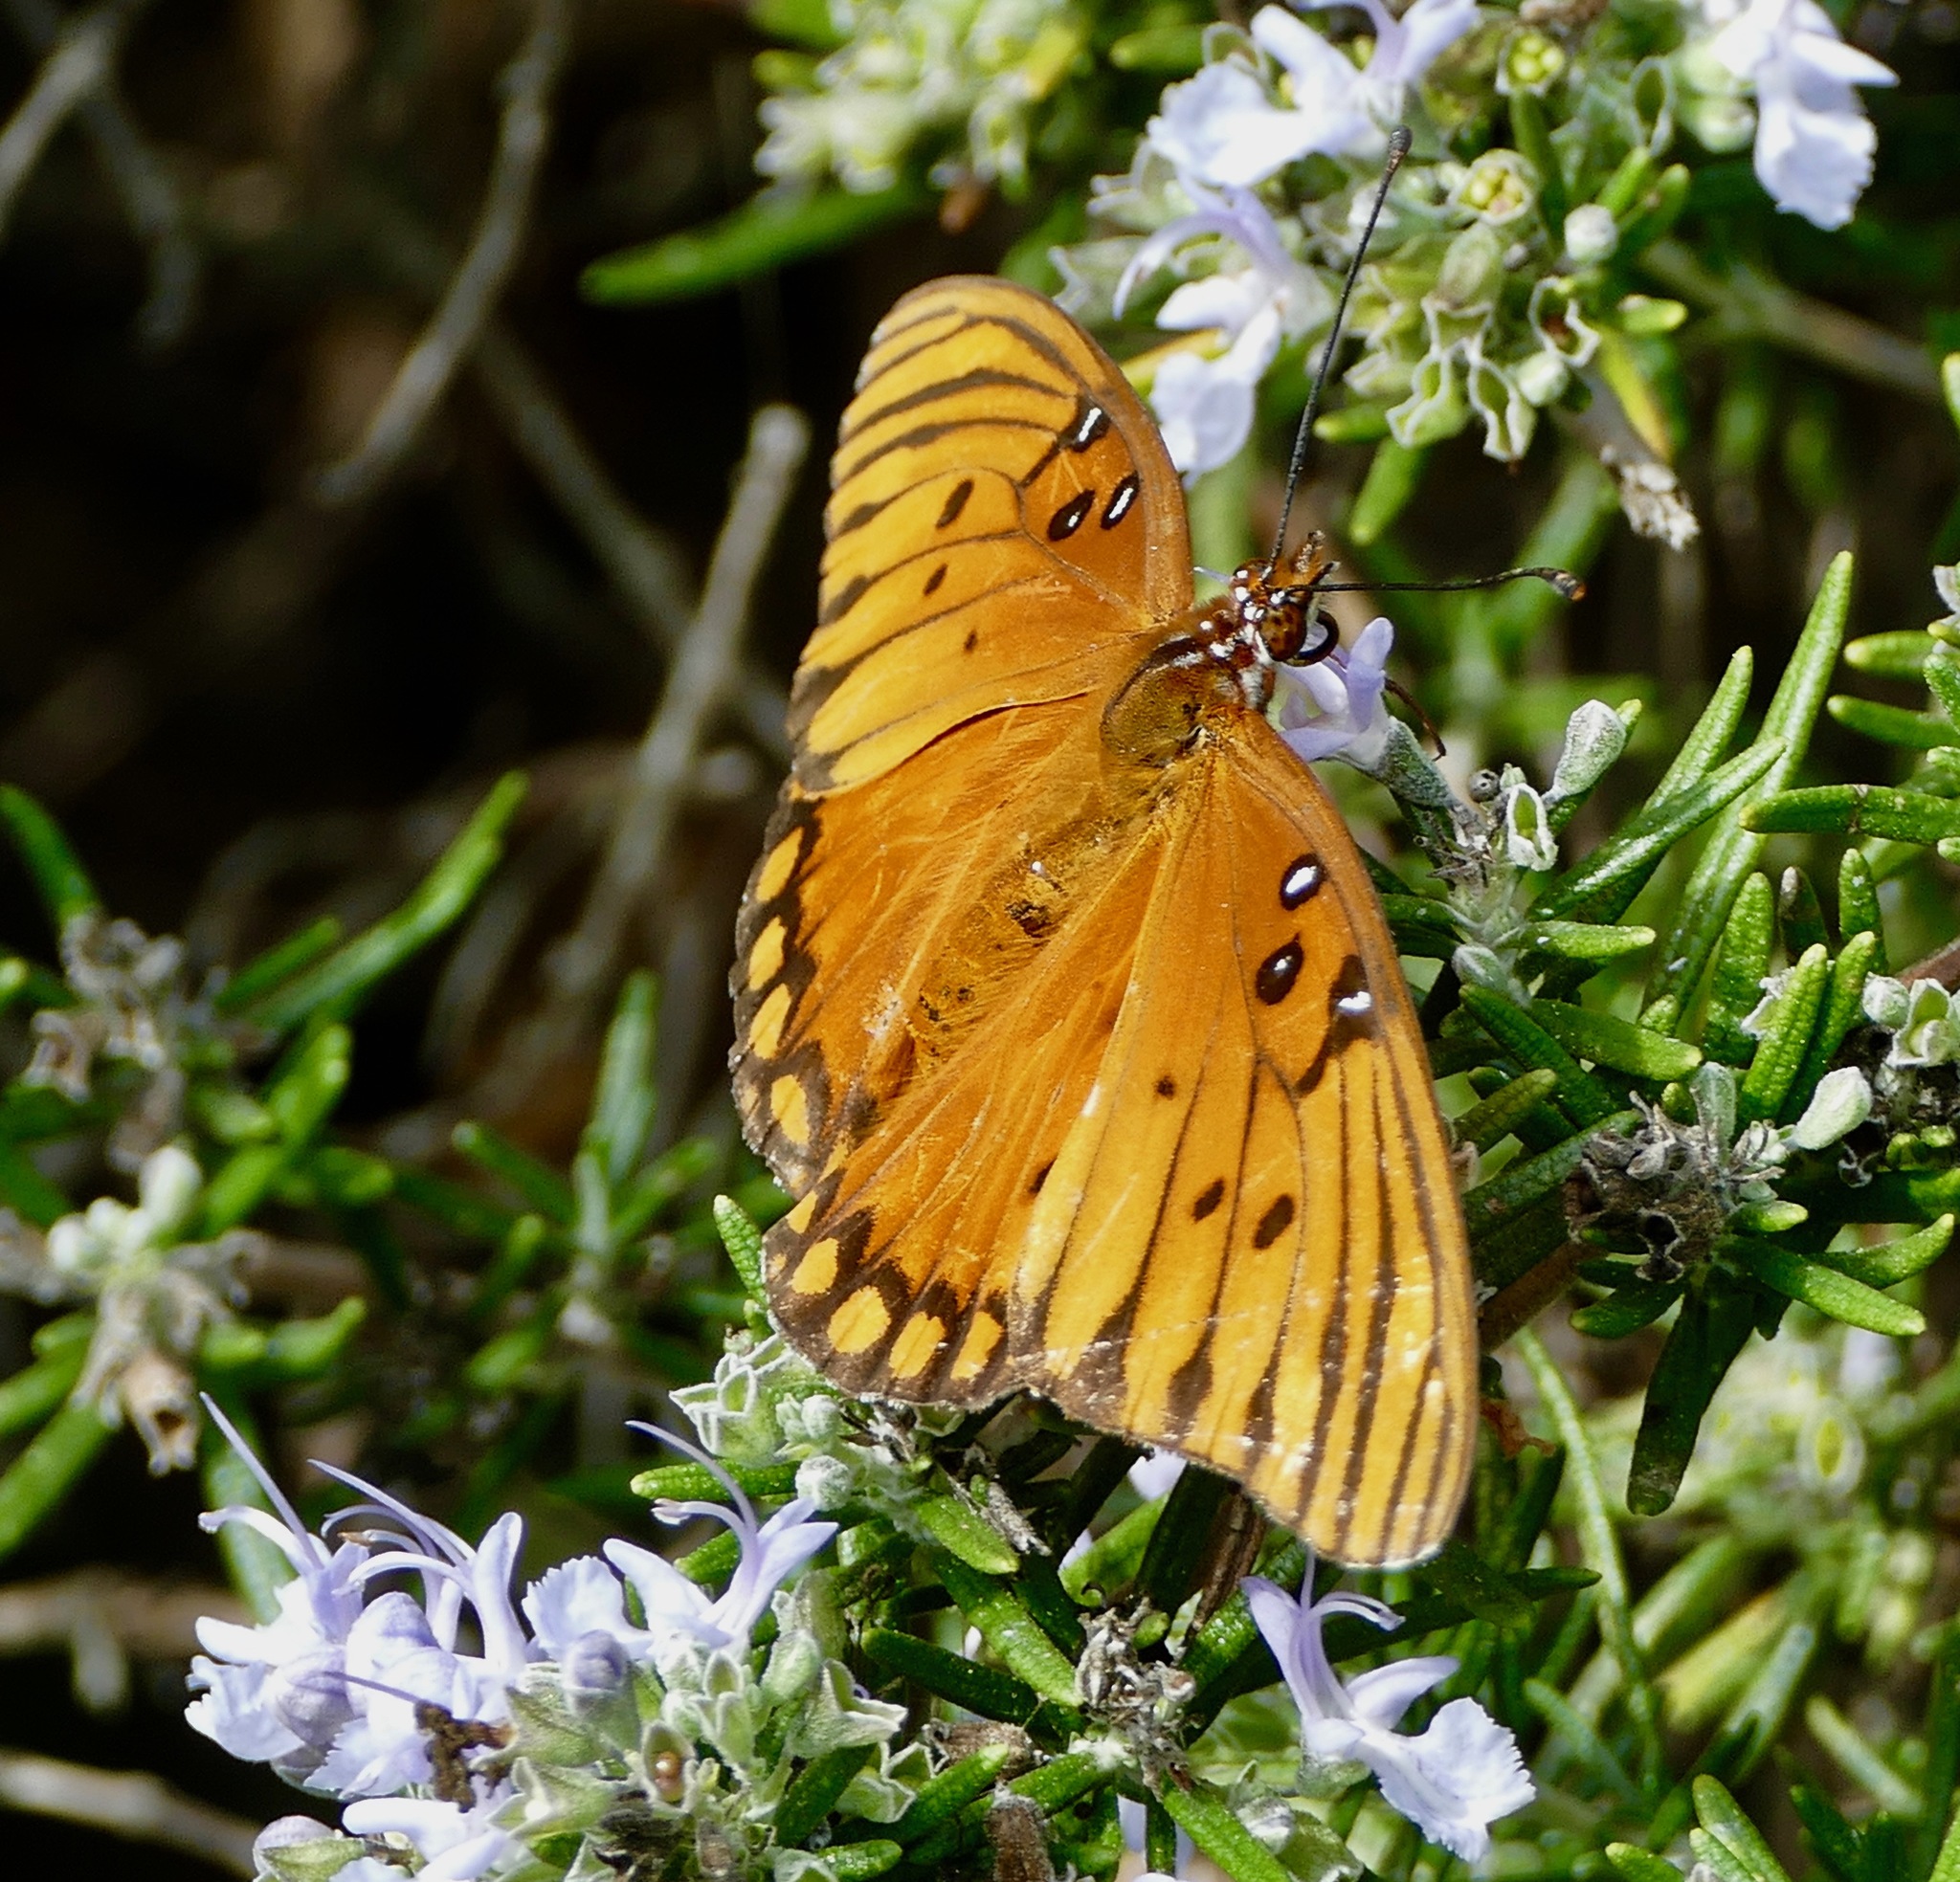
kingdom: Animalia
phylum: Arthropoda
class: Insecta
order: Lepidoptera
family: Nymphalidae
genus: Dione
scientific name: Dione vanillae
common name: Gulf fritillary
